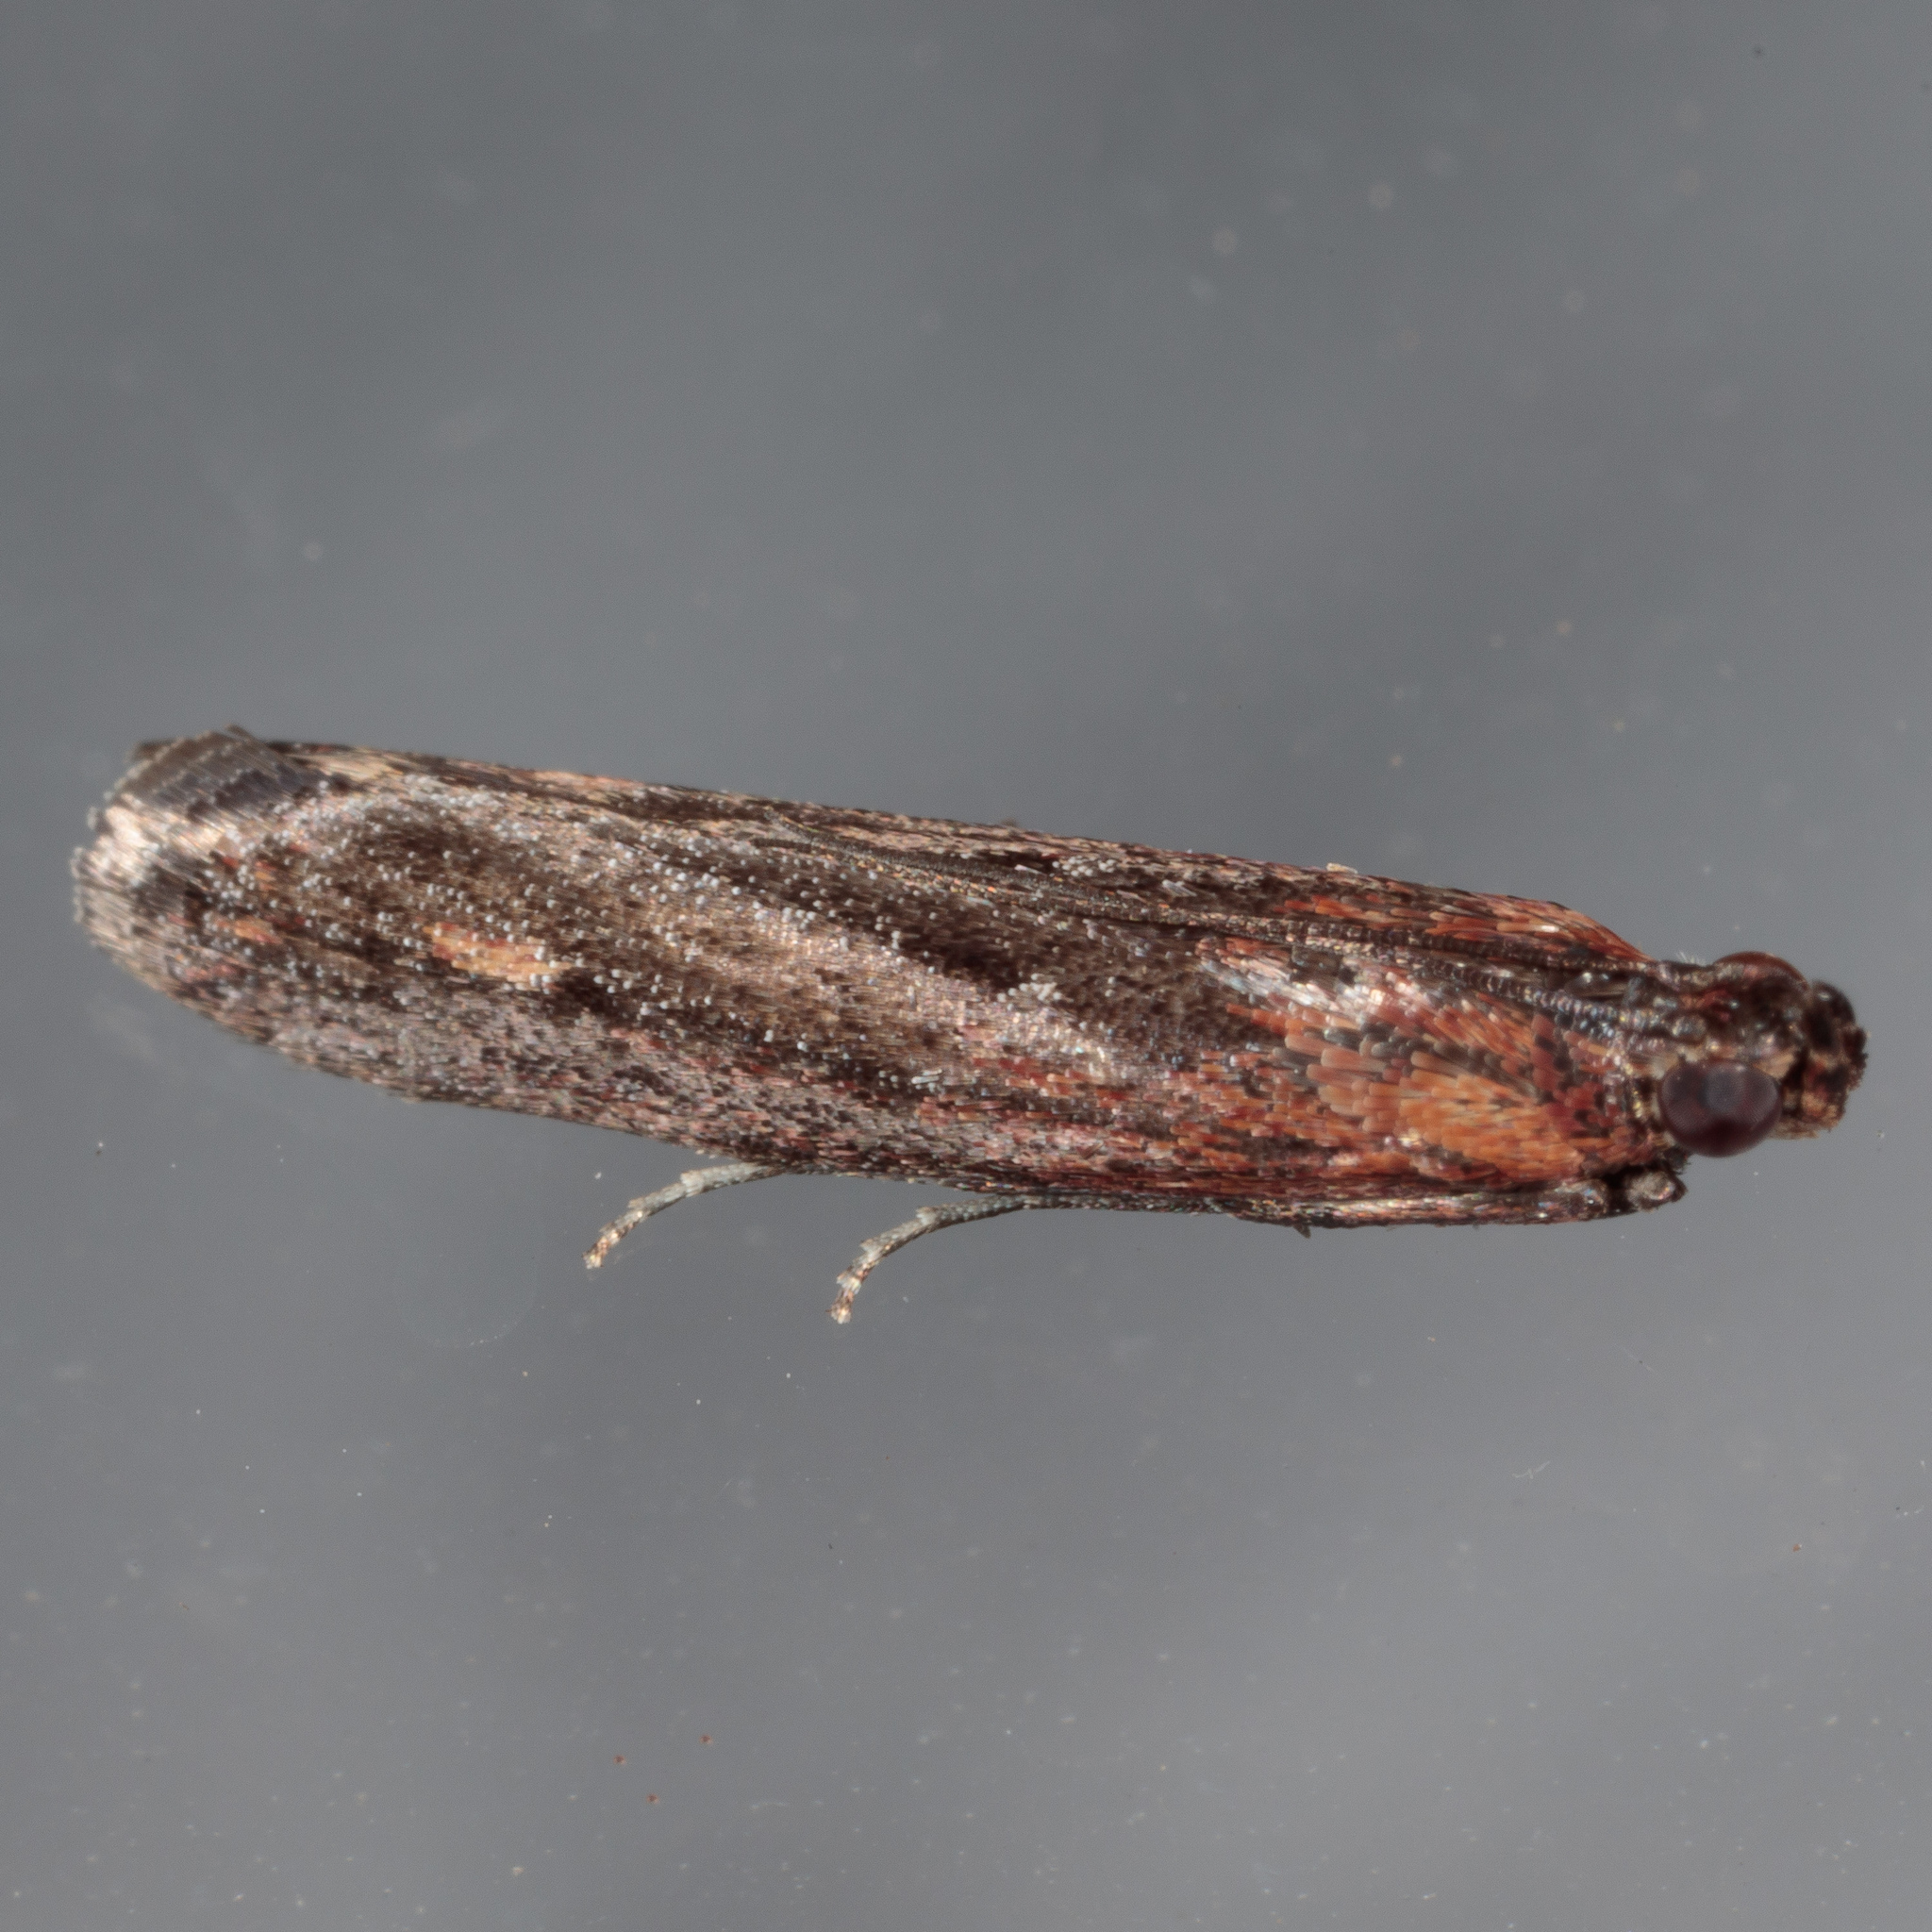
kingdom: Animalia
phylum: Arthropoda
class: Insecta
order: Lepidoptera
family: Pyralidae
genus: Elasmopalpus
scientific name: Elasmopalpus lignosella
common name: Lesser cornstalk borer
